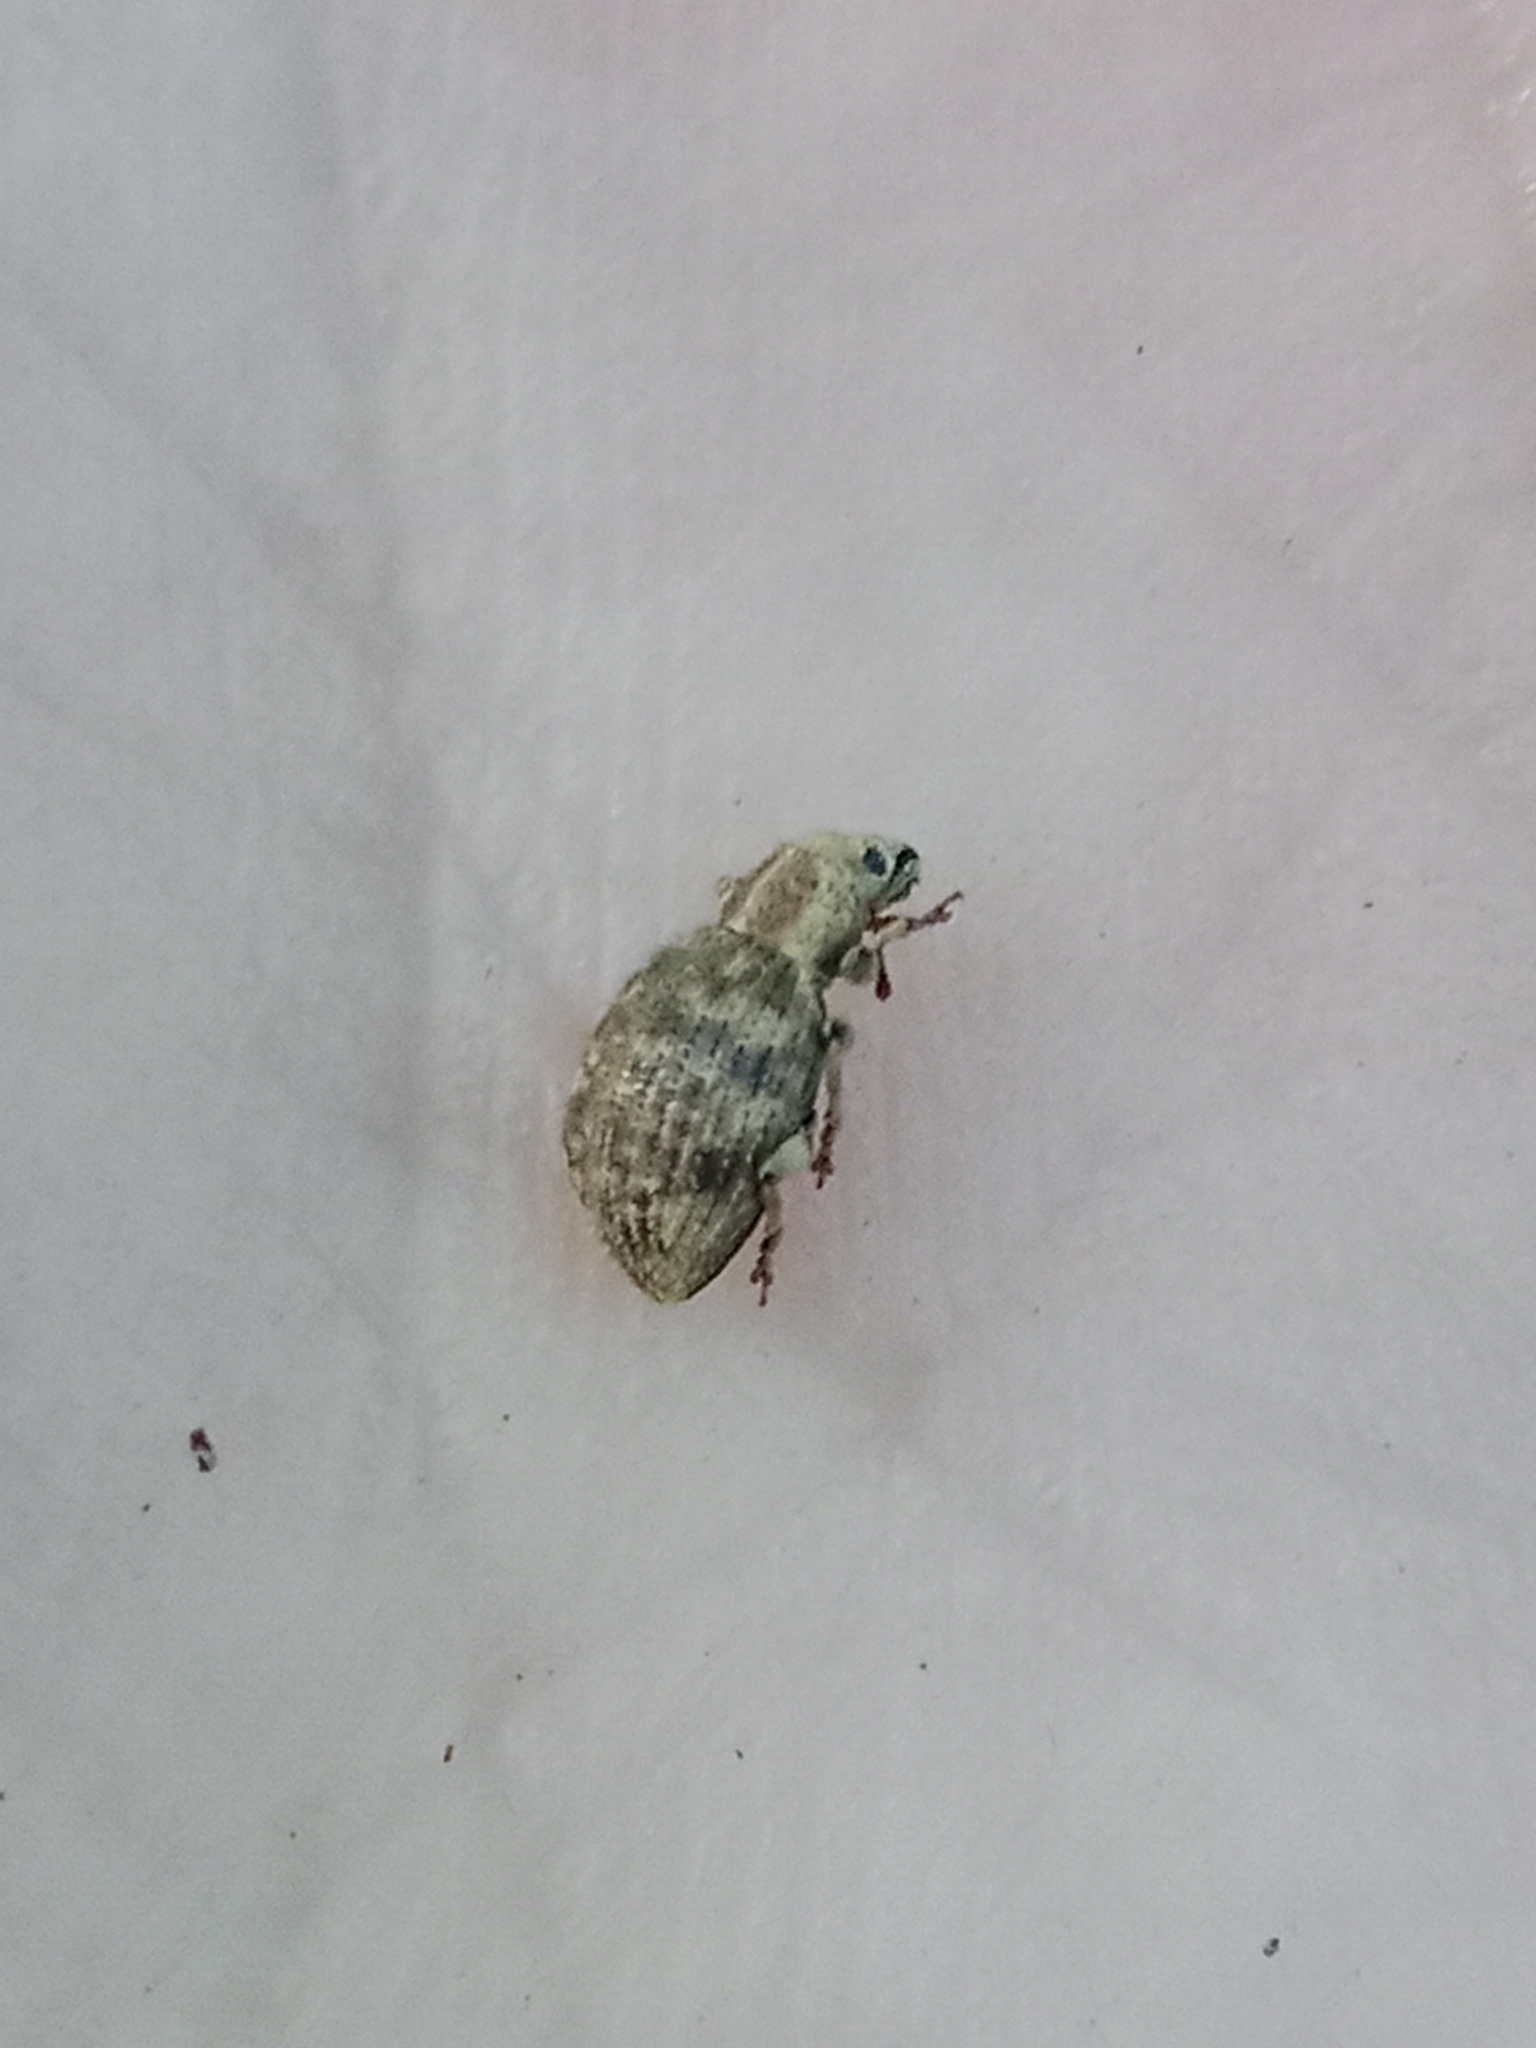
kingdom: Animalia
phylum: Arthropoda
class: Insecta
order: Coleoptera
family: Curculionidae
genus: Sciaphilus
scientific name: Sciaphilus asperatus
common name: Weevil
